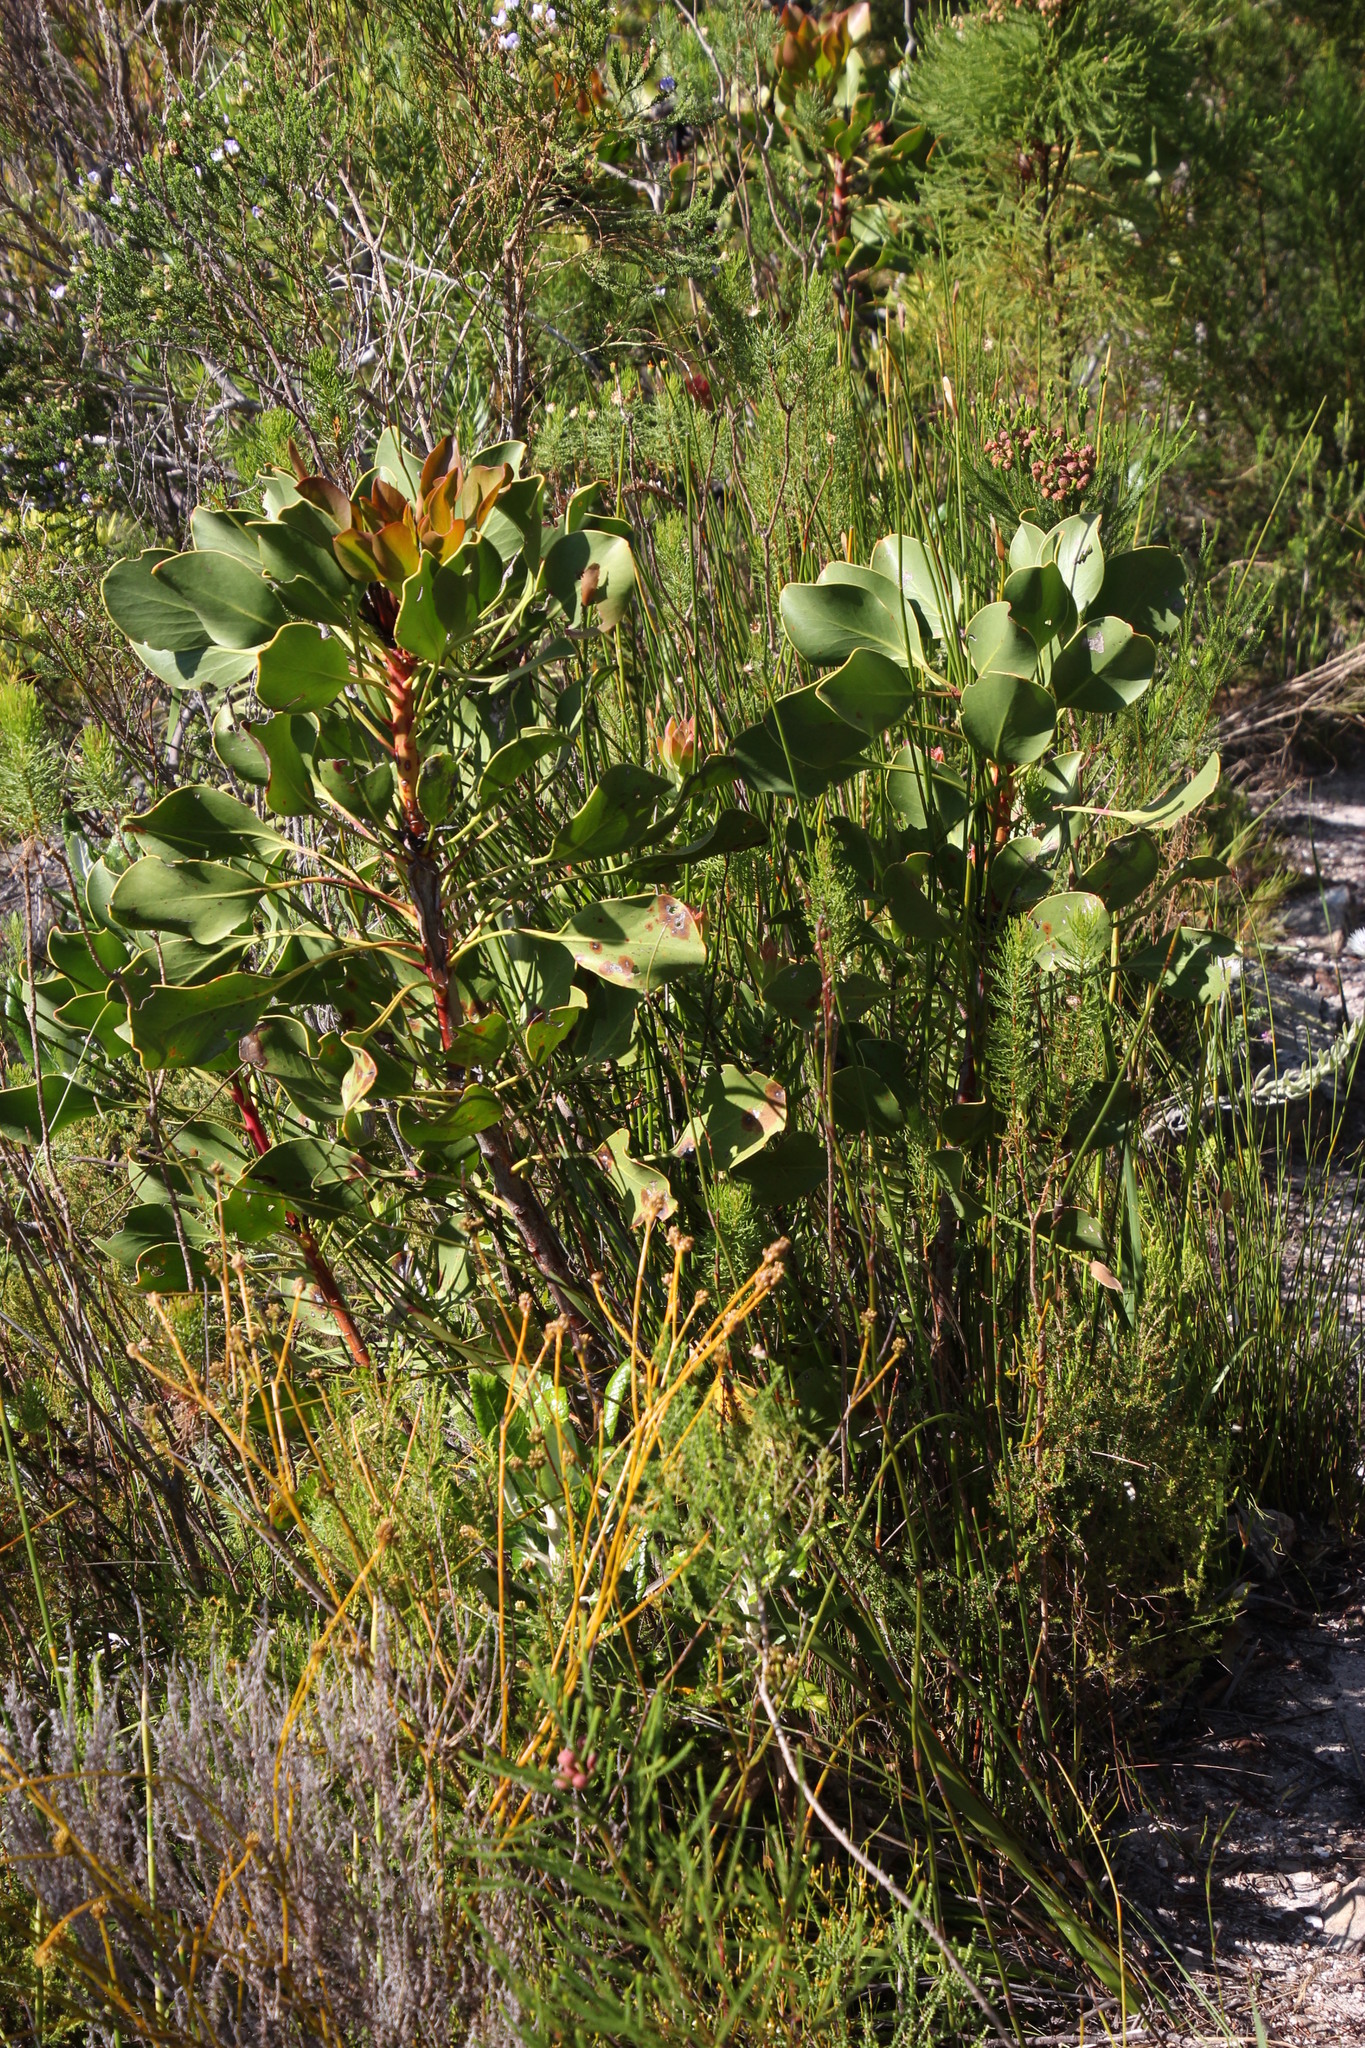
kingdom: Plantae
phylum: Tracheophyta
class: Magnoliopsida
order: Proteales
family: Proteaceae
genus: Protea
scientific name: Protea cynaroides
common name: King protea
